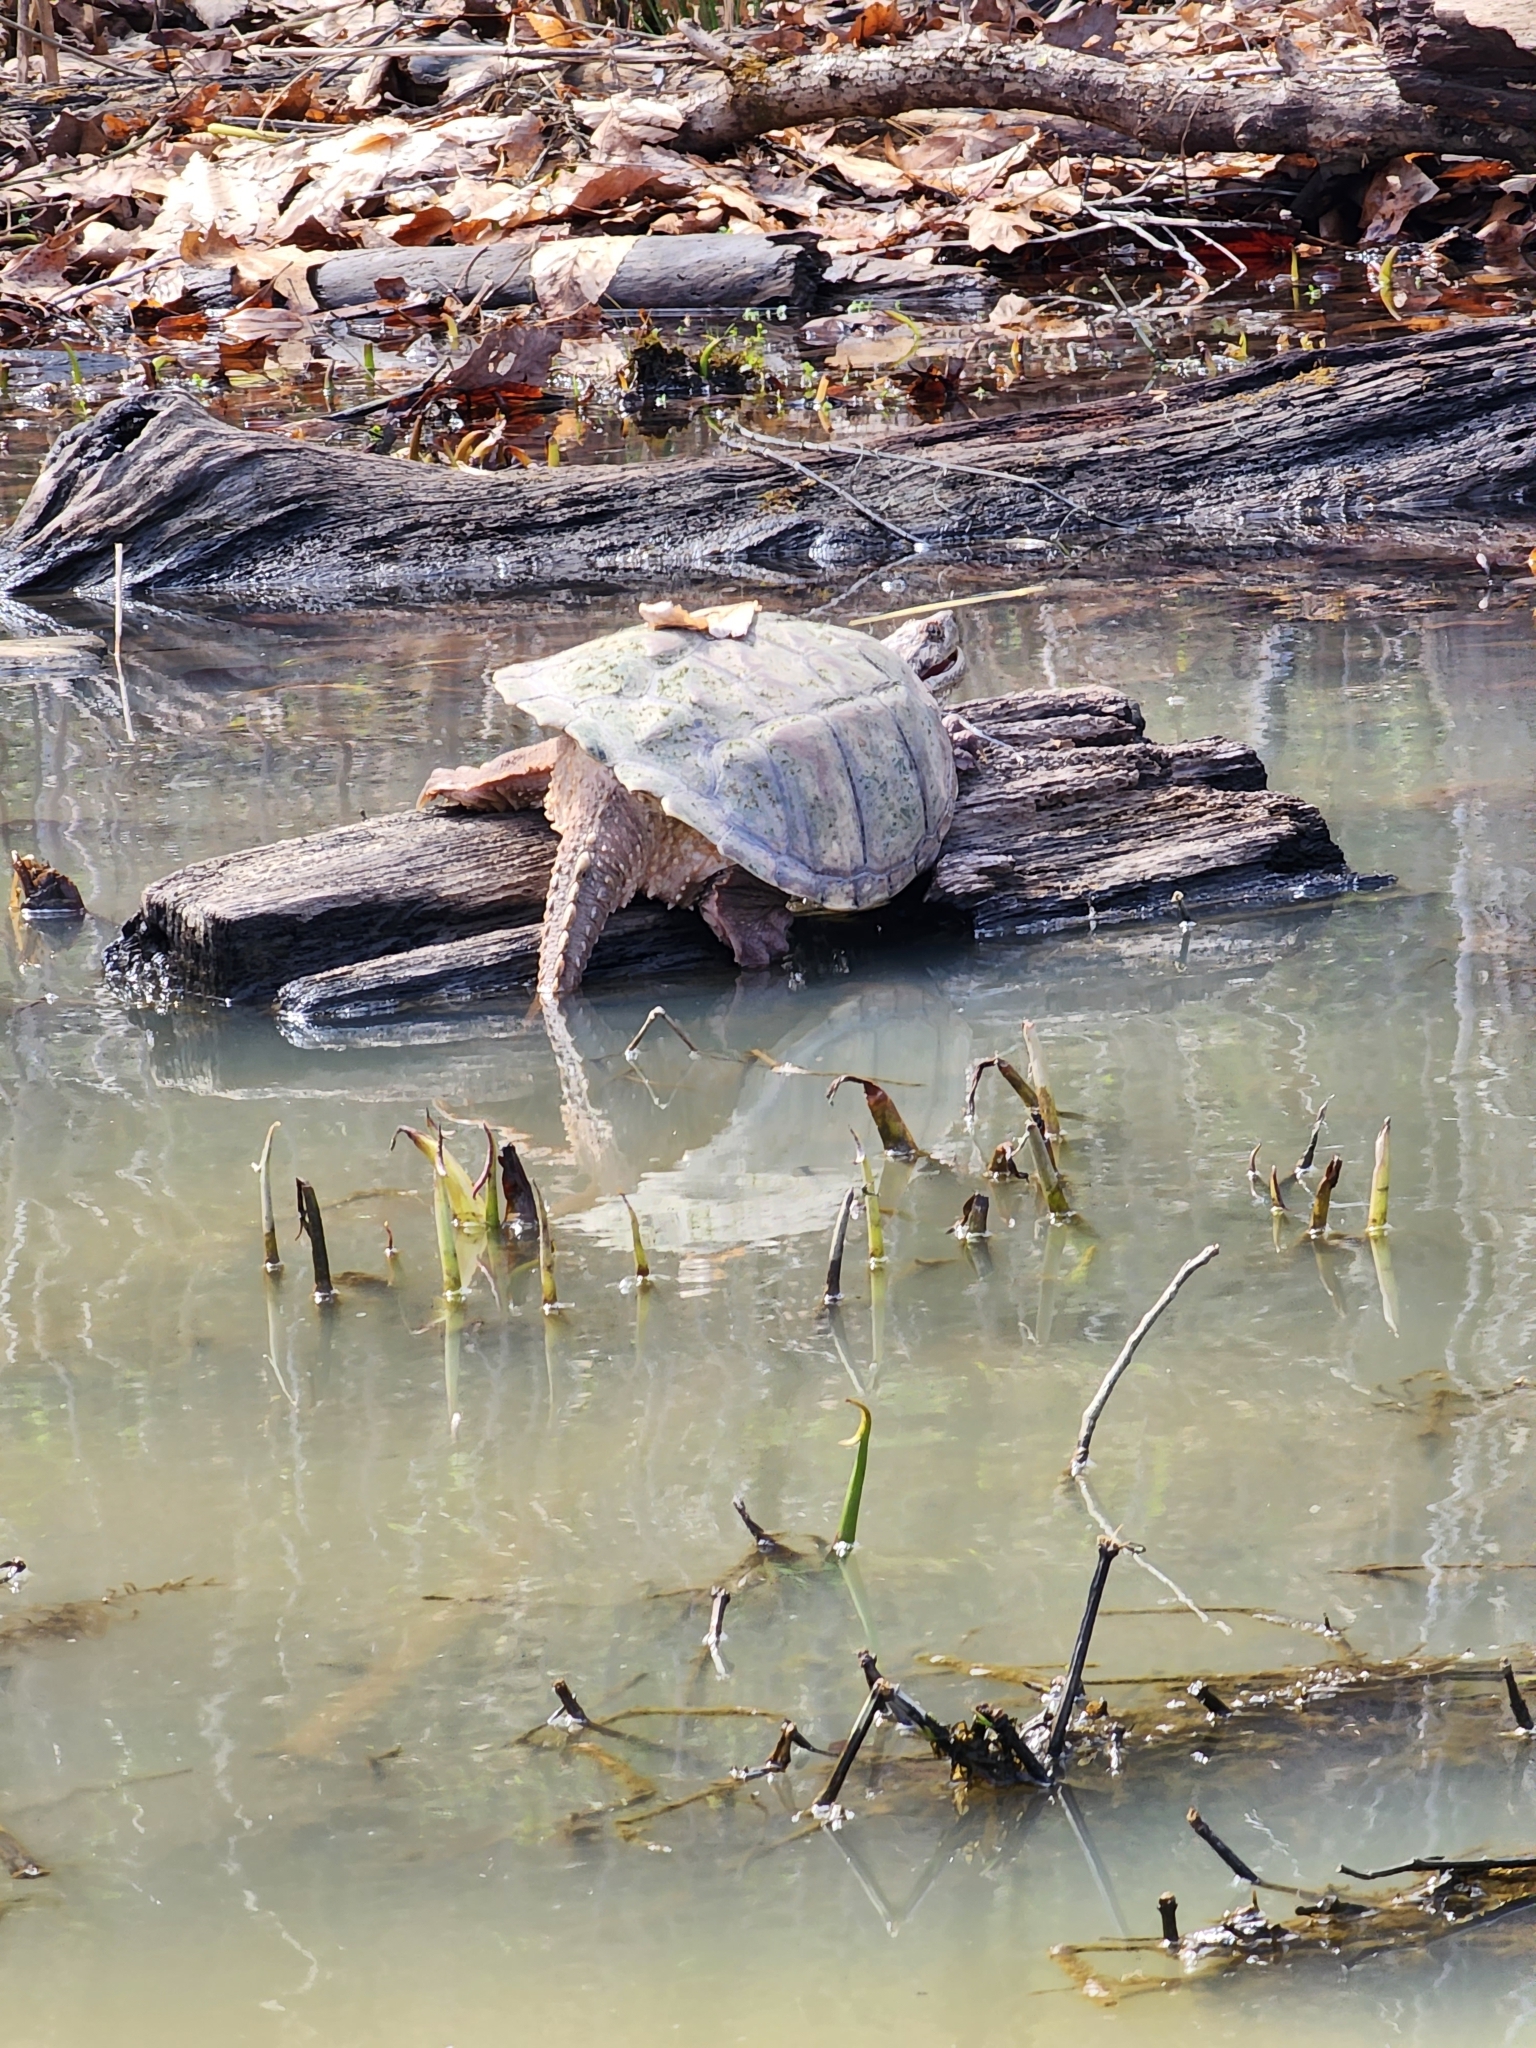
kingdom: Animalia
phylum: Chordata
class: Testudines
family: Chelydridae
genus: Chelydra
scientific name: Chelydra serpentina
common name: Common snapping turtle
